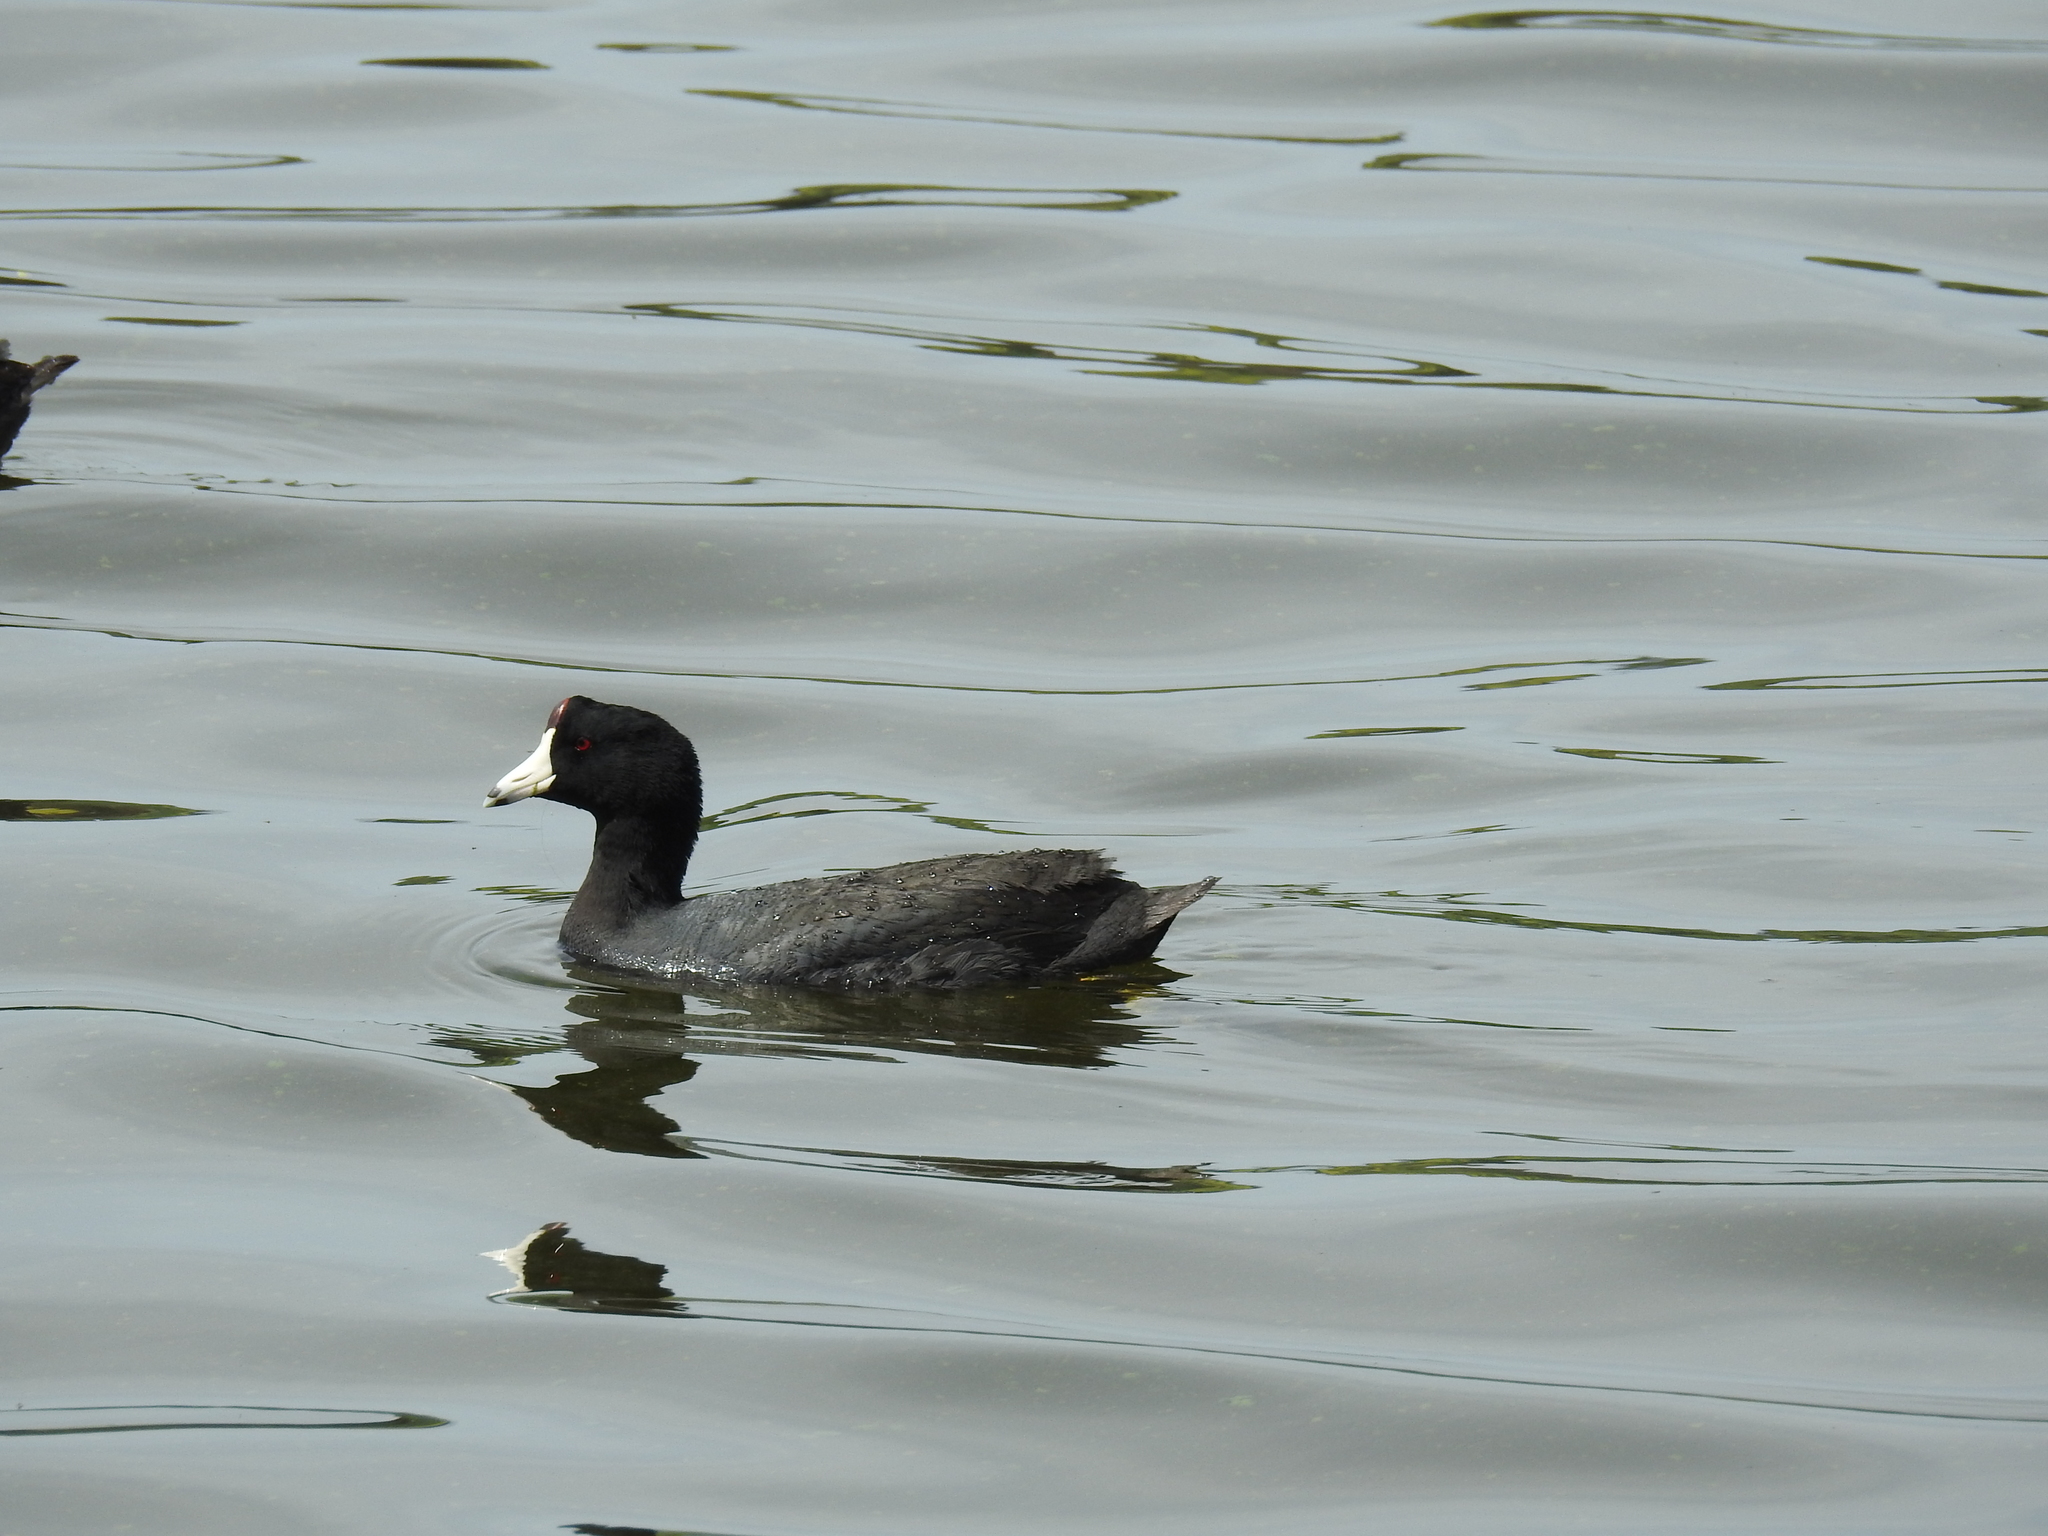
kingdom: Animalia
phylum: Chordata
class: Aves
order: Gruiformes
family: Rallidae
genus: Fulica
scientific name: Fulica americana
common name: American coot
